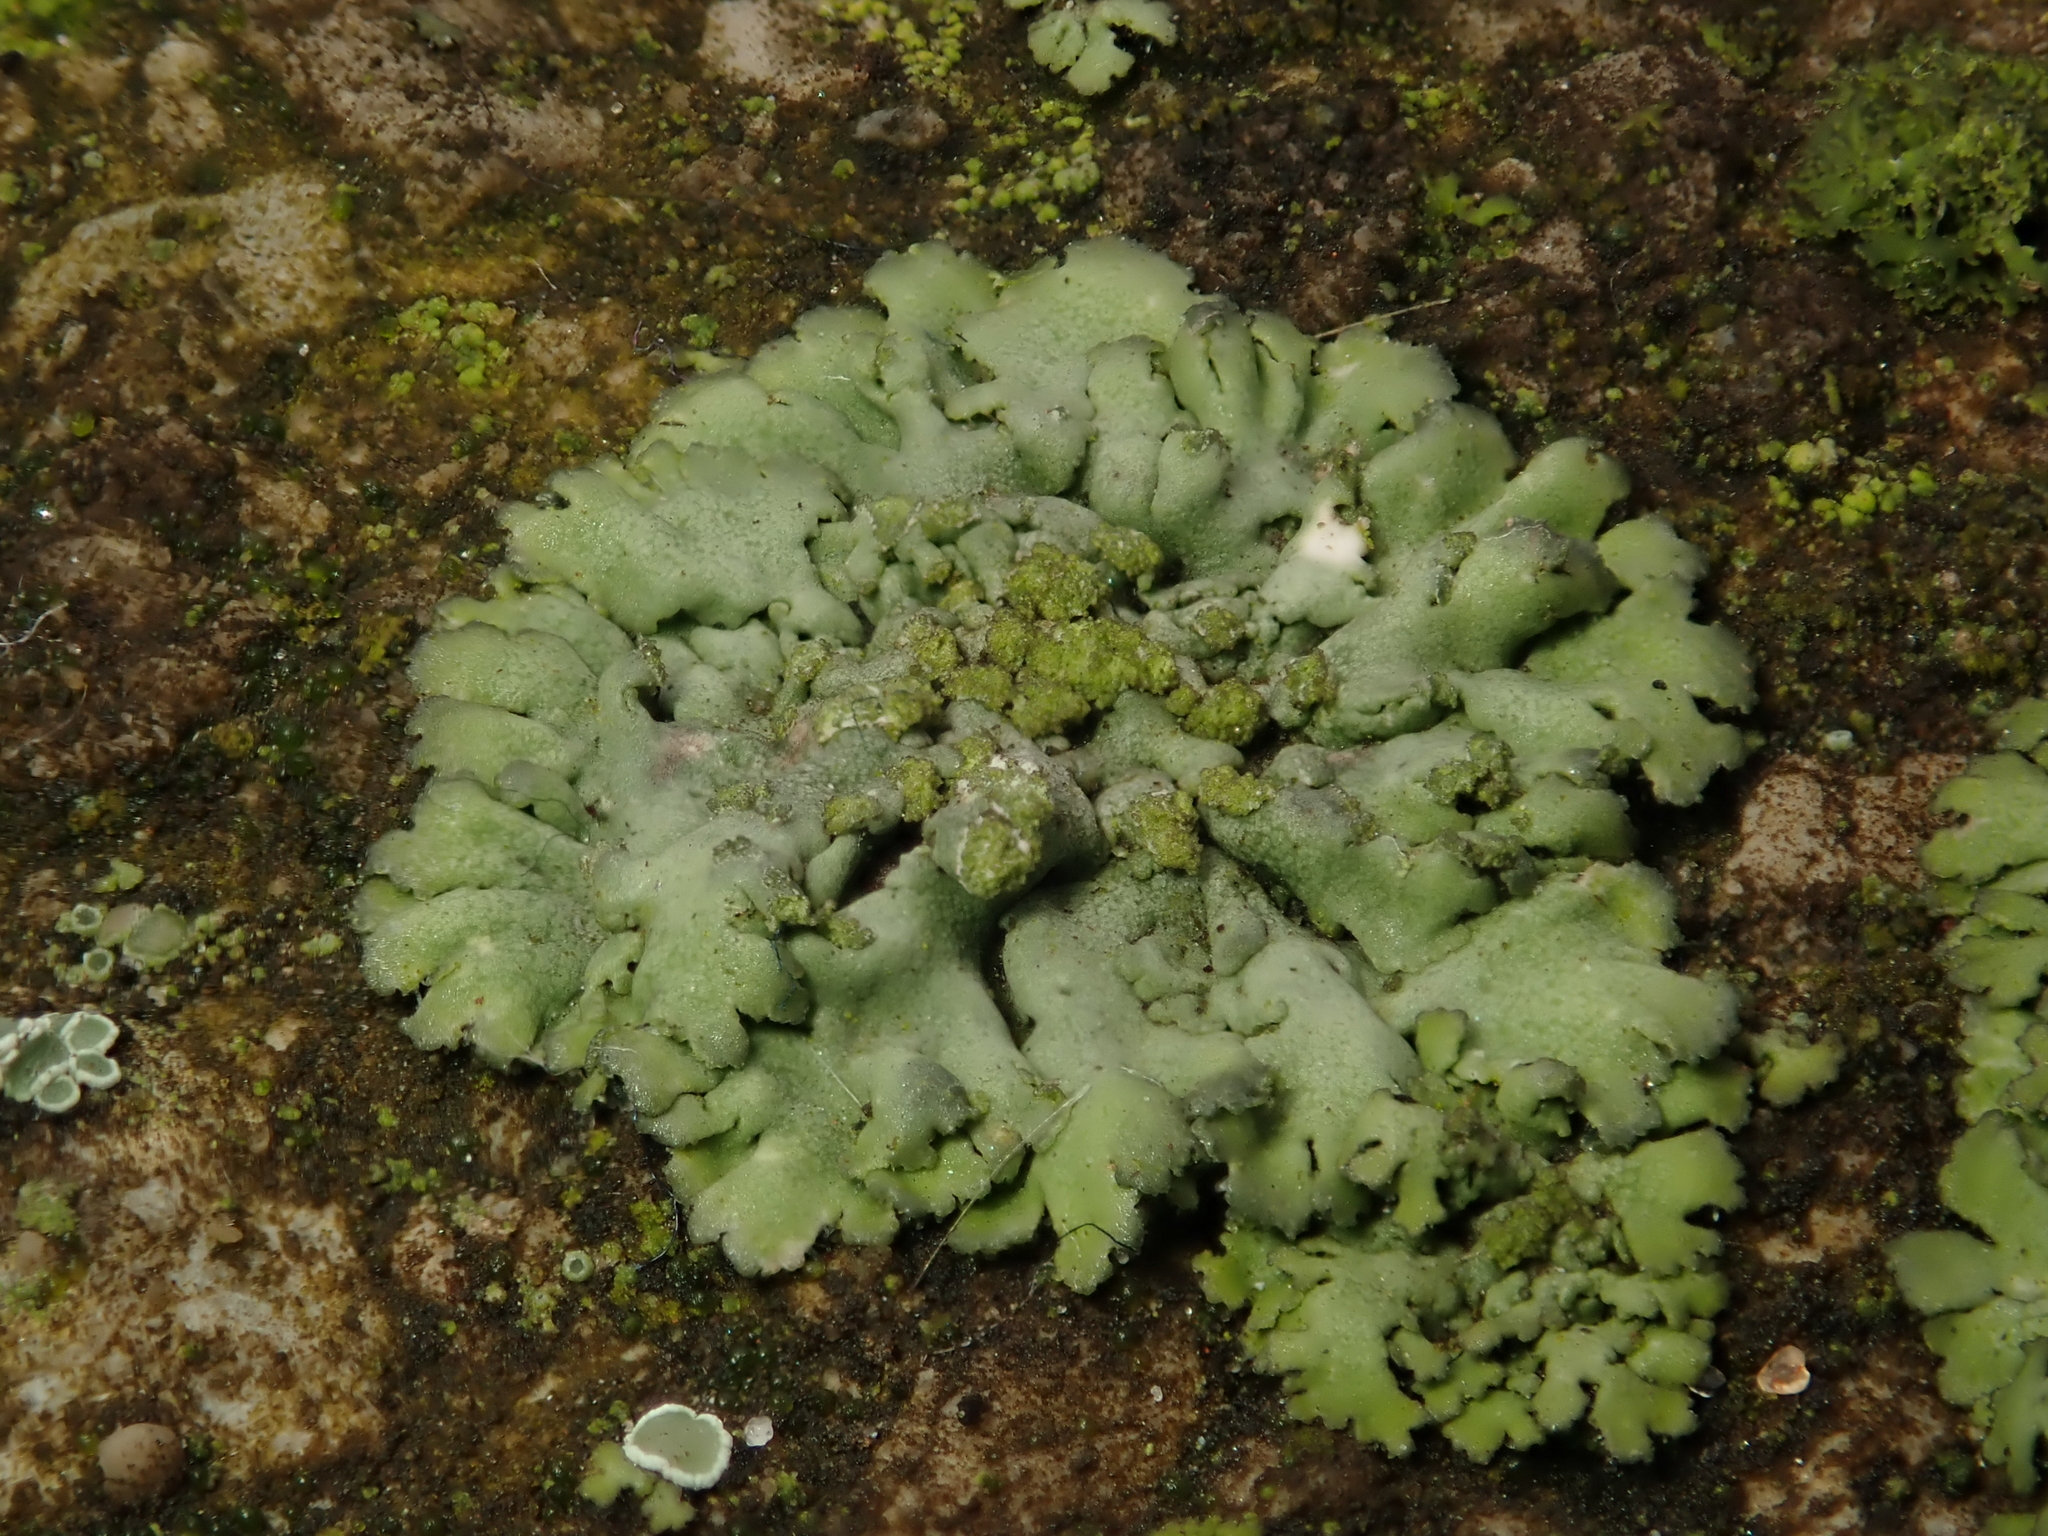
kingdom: Fungi
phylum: Ascomycota
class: Lecanoromycetes
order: Caliciales
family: Physciaceae
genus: Phaeophyscia
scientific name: Phaeophyscia orbicularis
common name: Mealy shadow lichen
